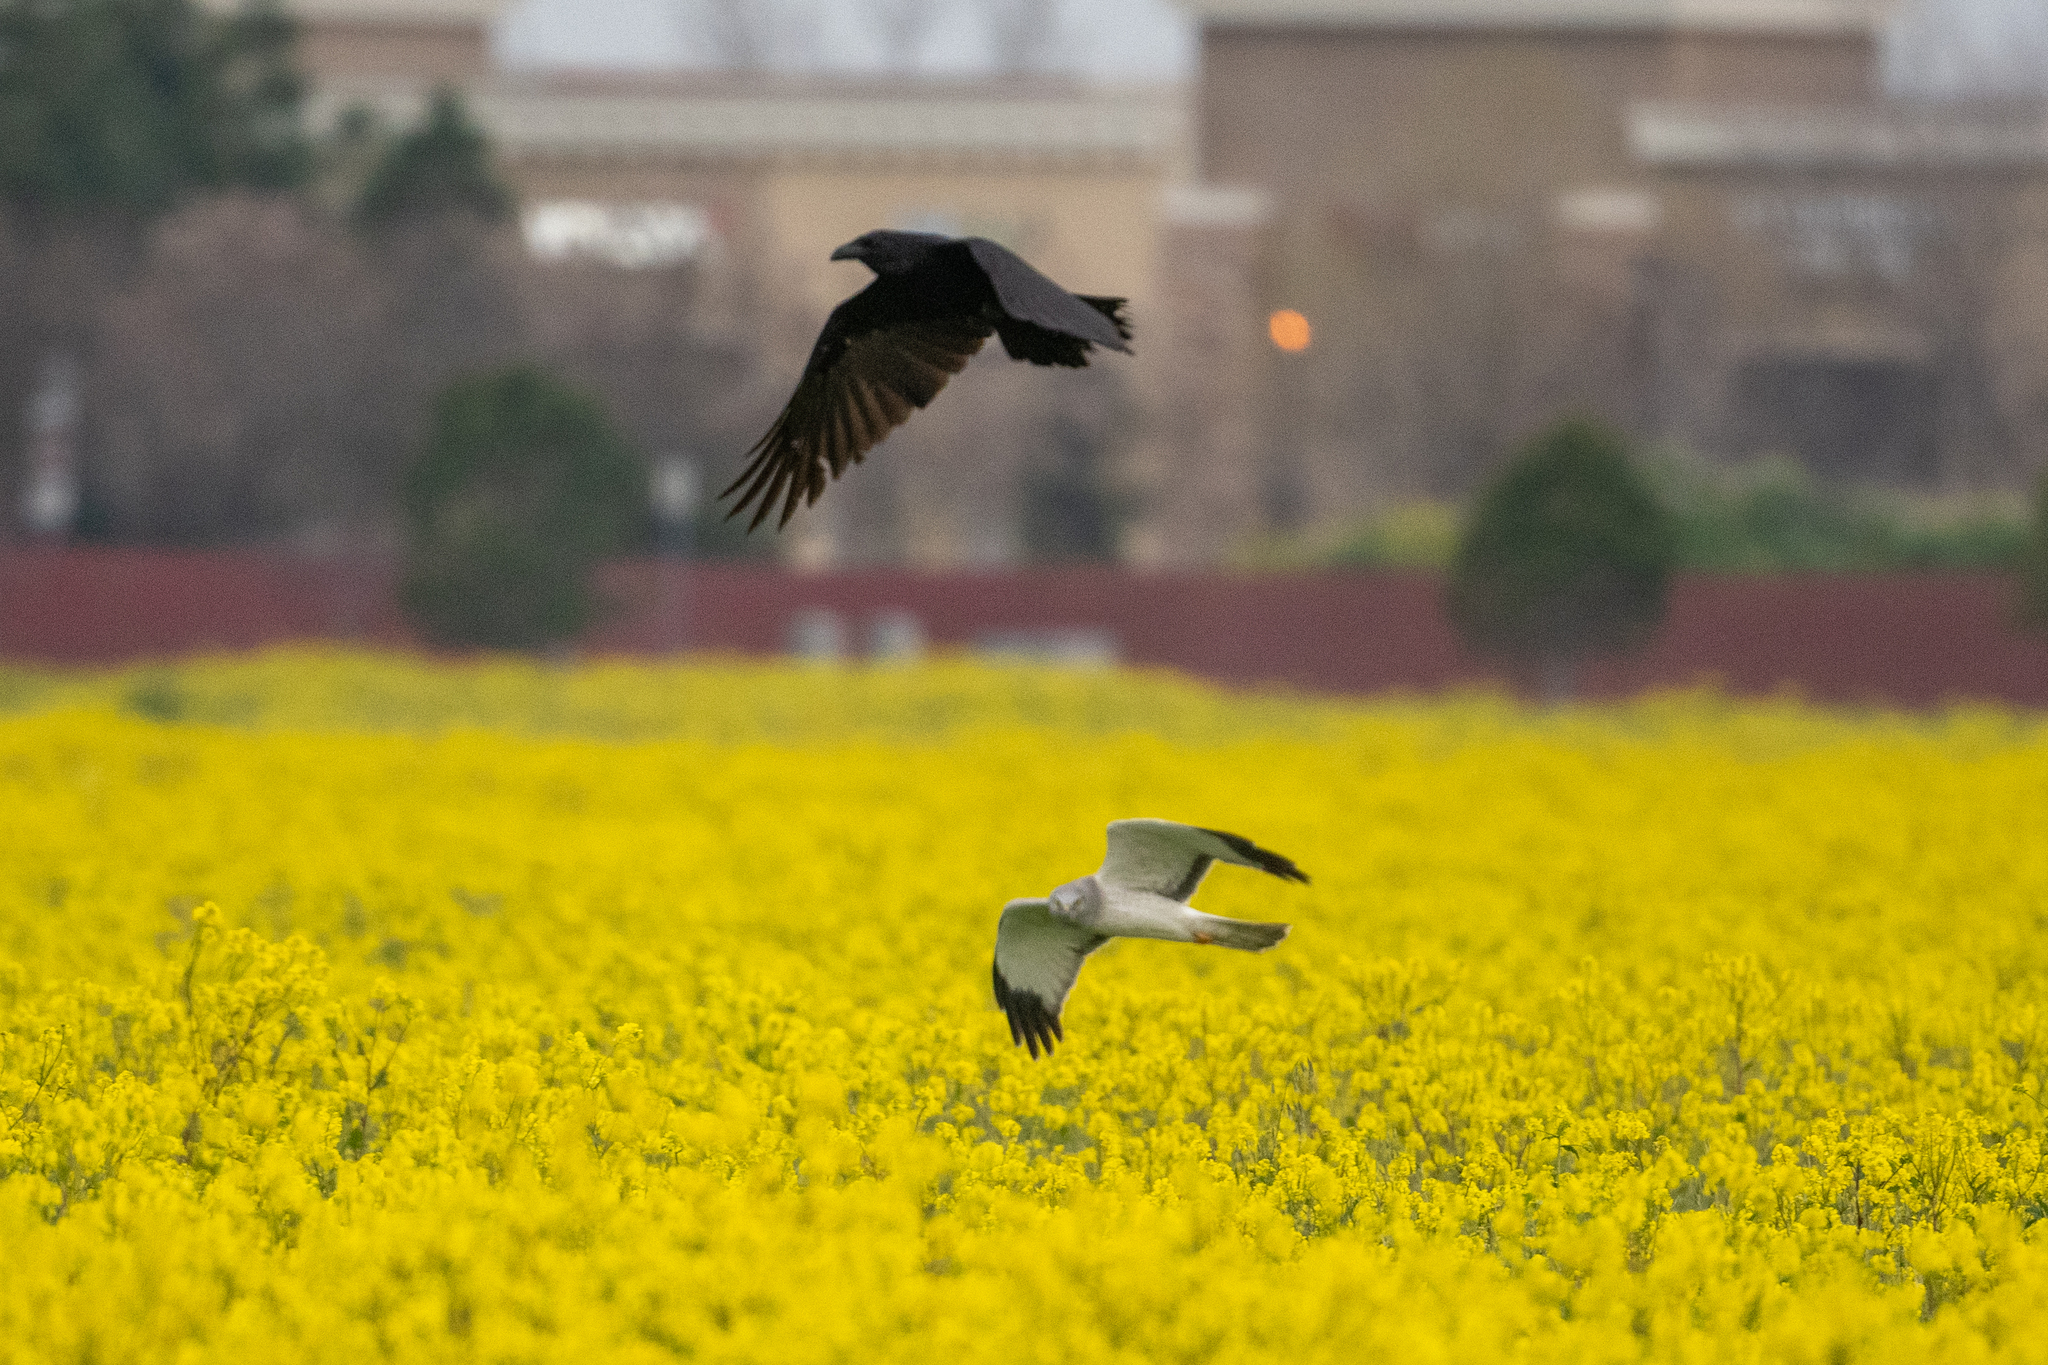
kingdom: Animalia
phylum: Chordata
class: Aves
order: Accipitriformes
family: Accipitridae
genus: Circus
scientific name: Circus cyaneus
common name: Hen harrier
